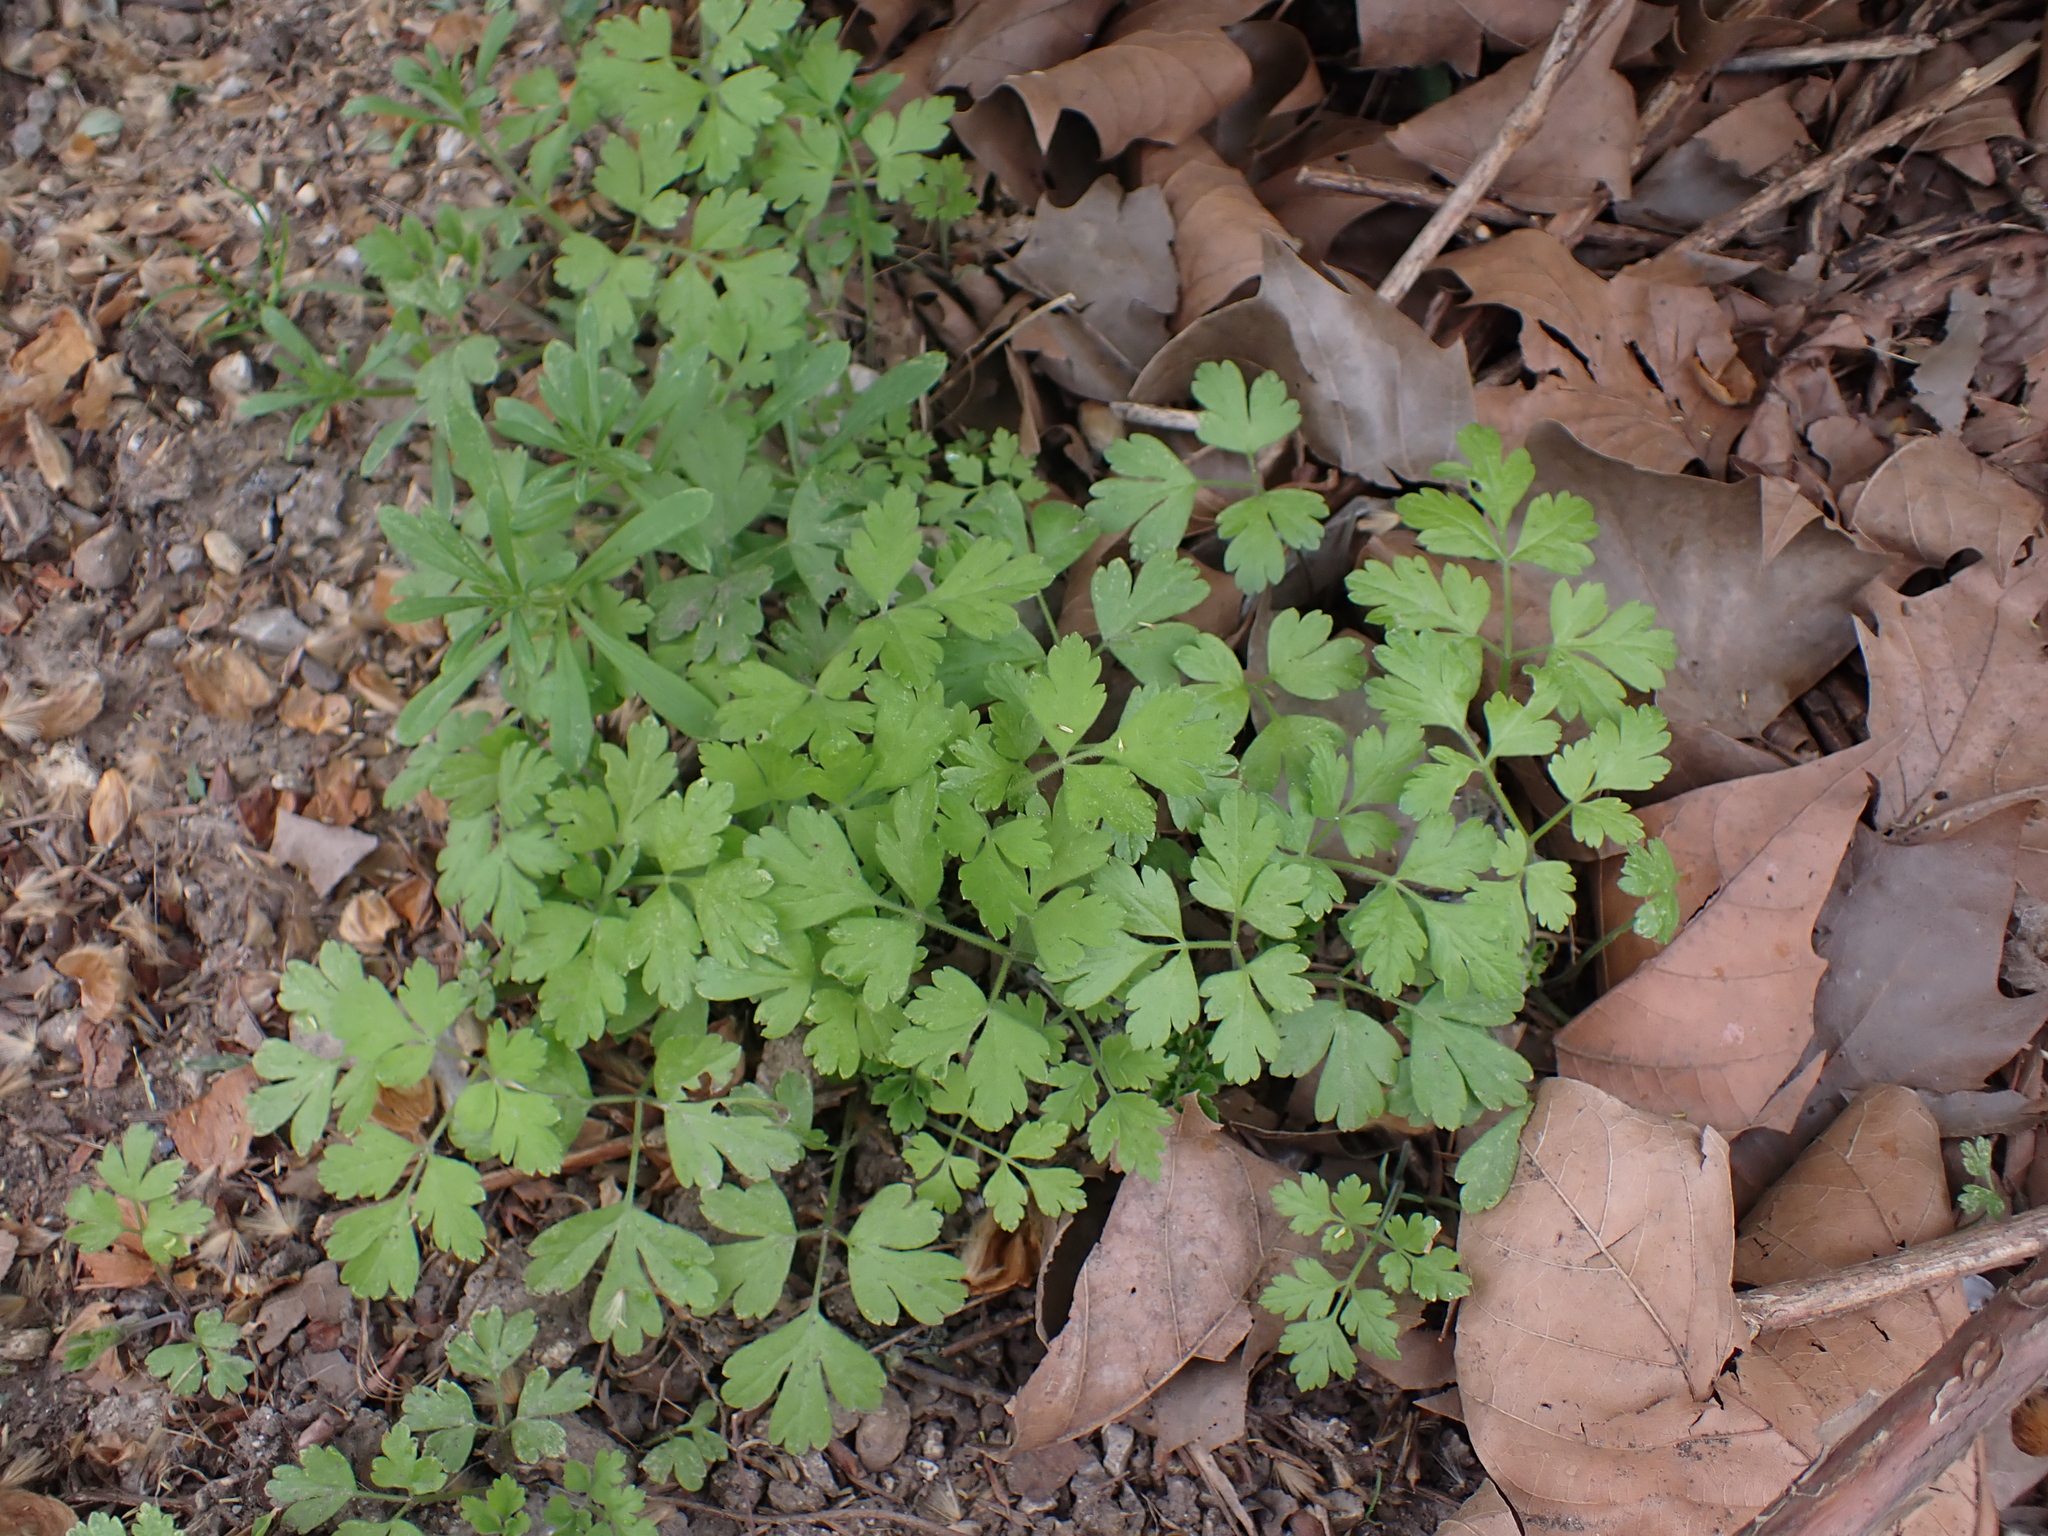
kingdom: Plantae
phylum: Tracheophyta
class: Magnoliopsida
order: Apiales
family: Apiaceae
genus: Chaerophyllum
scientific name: Chaerophyllum temulum
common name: Rough chervil
